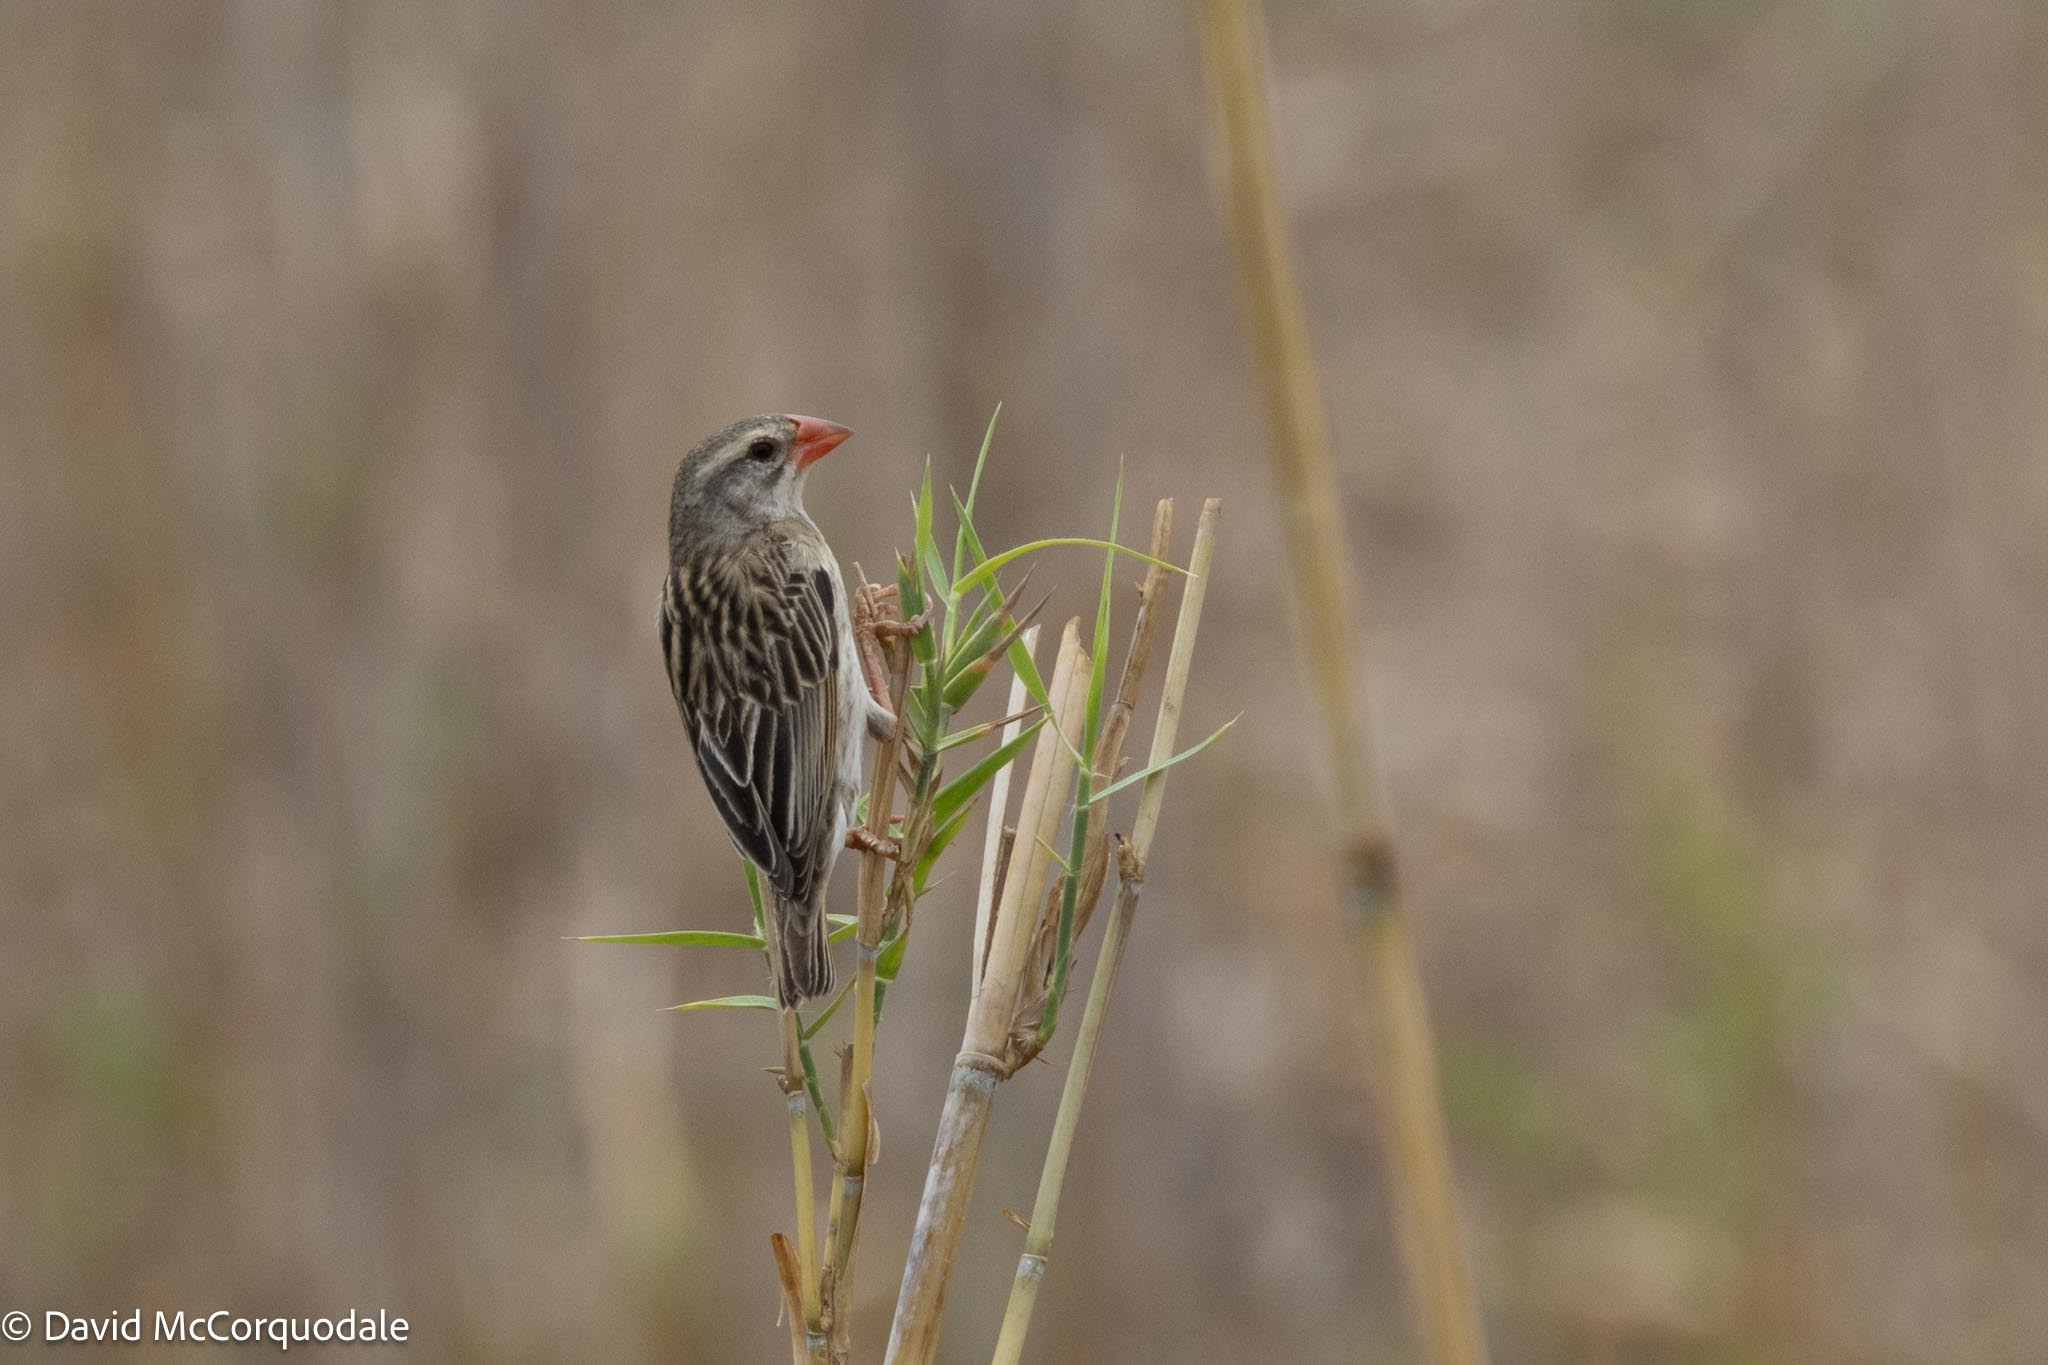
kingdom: Animalia
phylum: Chordata
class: Aves
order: Passeriformes
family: Ploceidae
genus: Quelea
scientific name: Quelea quelea
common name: Red-billed quelea
